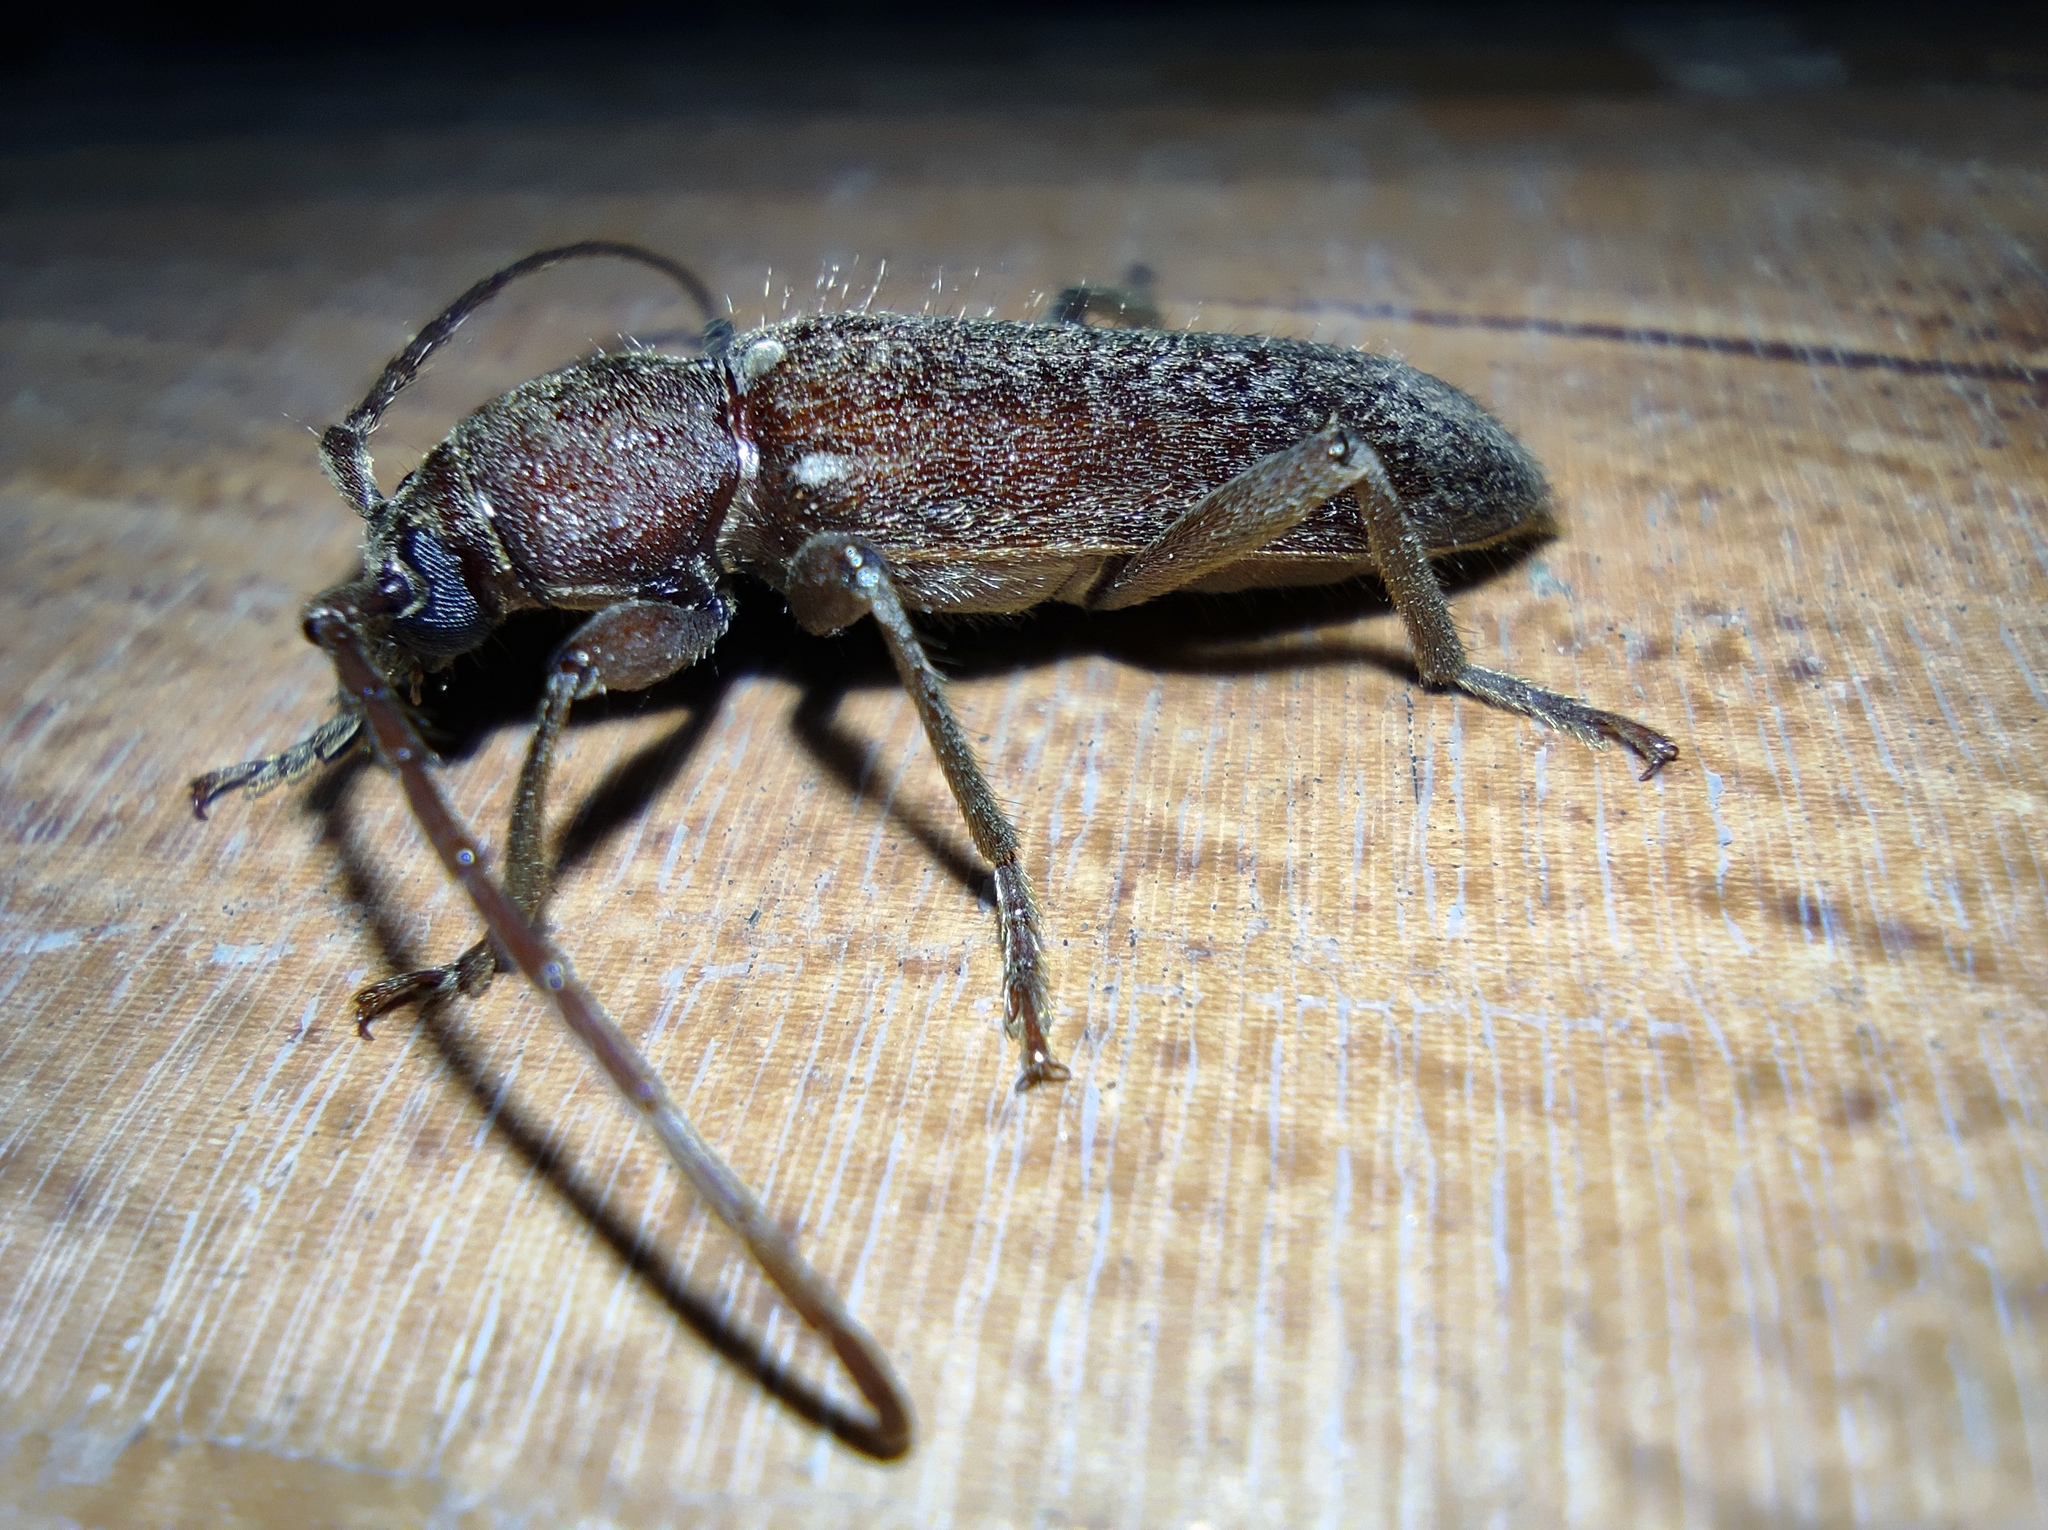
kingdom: Animalia
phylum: Arthropoda
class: Insecta
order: Coleoptera
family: Cerambycidae
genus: Trichoferus
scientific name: Trichoferus campestris
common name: Velvet long horned beetle
